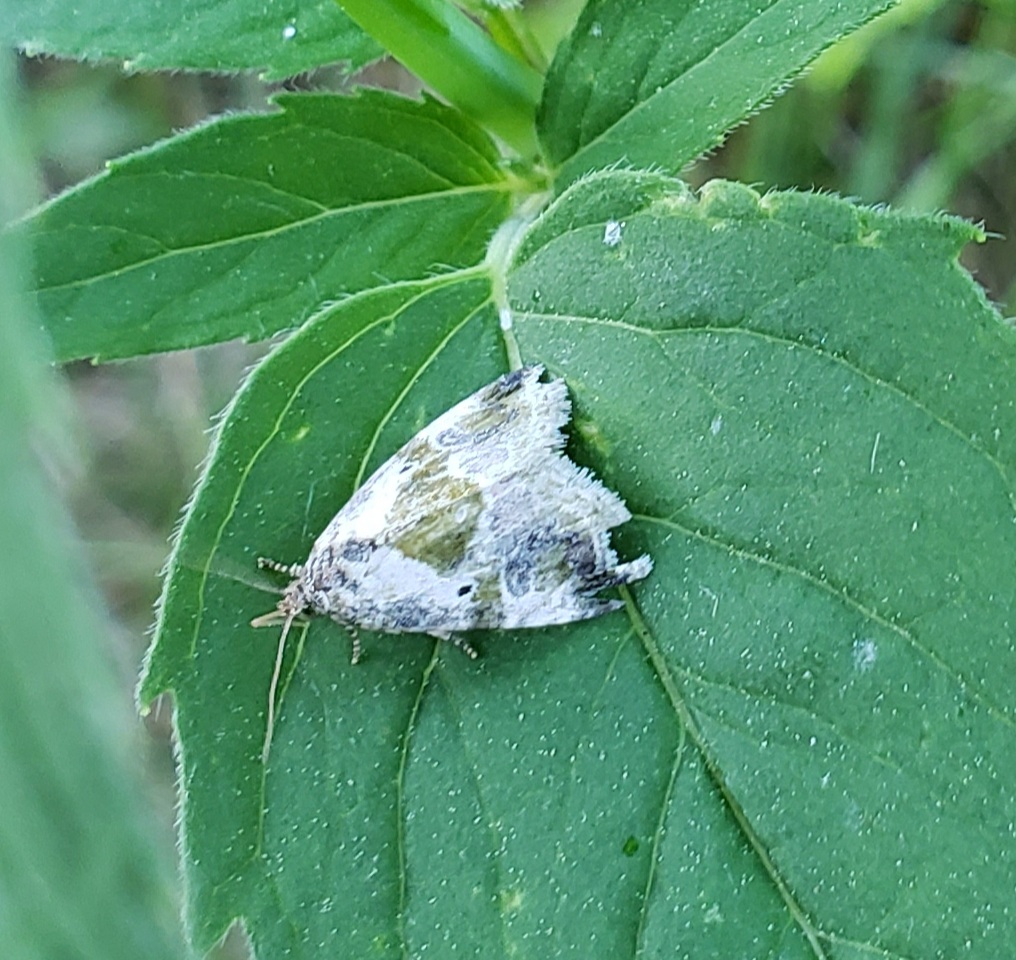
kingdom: Animalia
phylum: Arthropoda
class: Insecta
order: Lepidoptera
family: Noctuidae
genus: Maliattha
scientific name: Maliattha synochitis
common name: Black-dotted glyph
